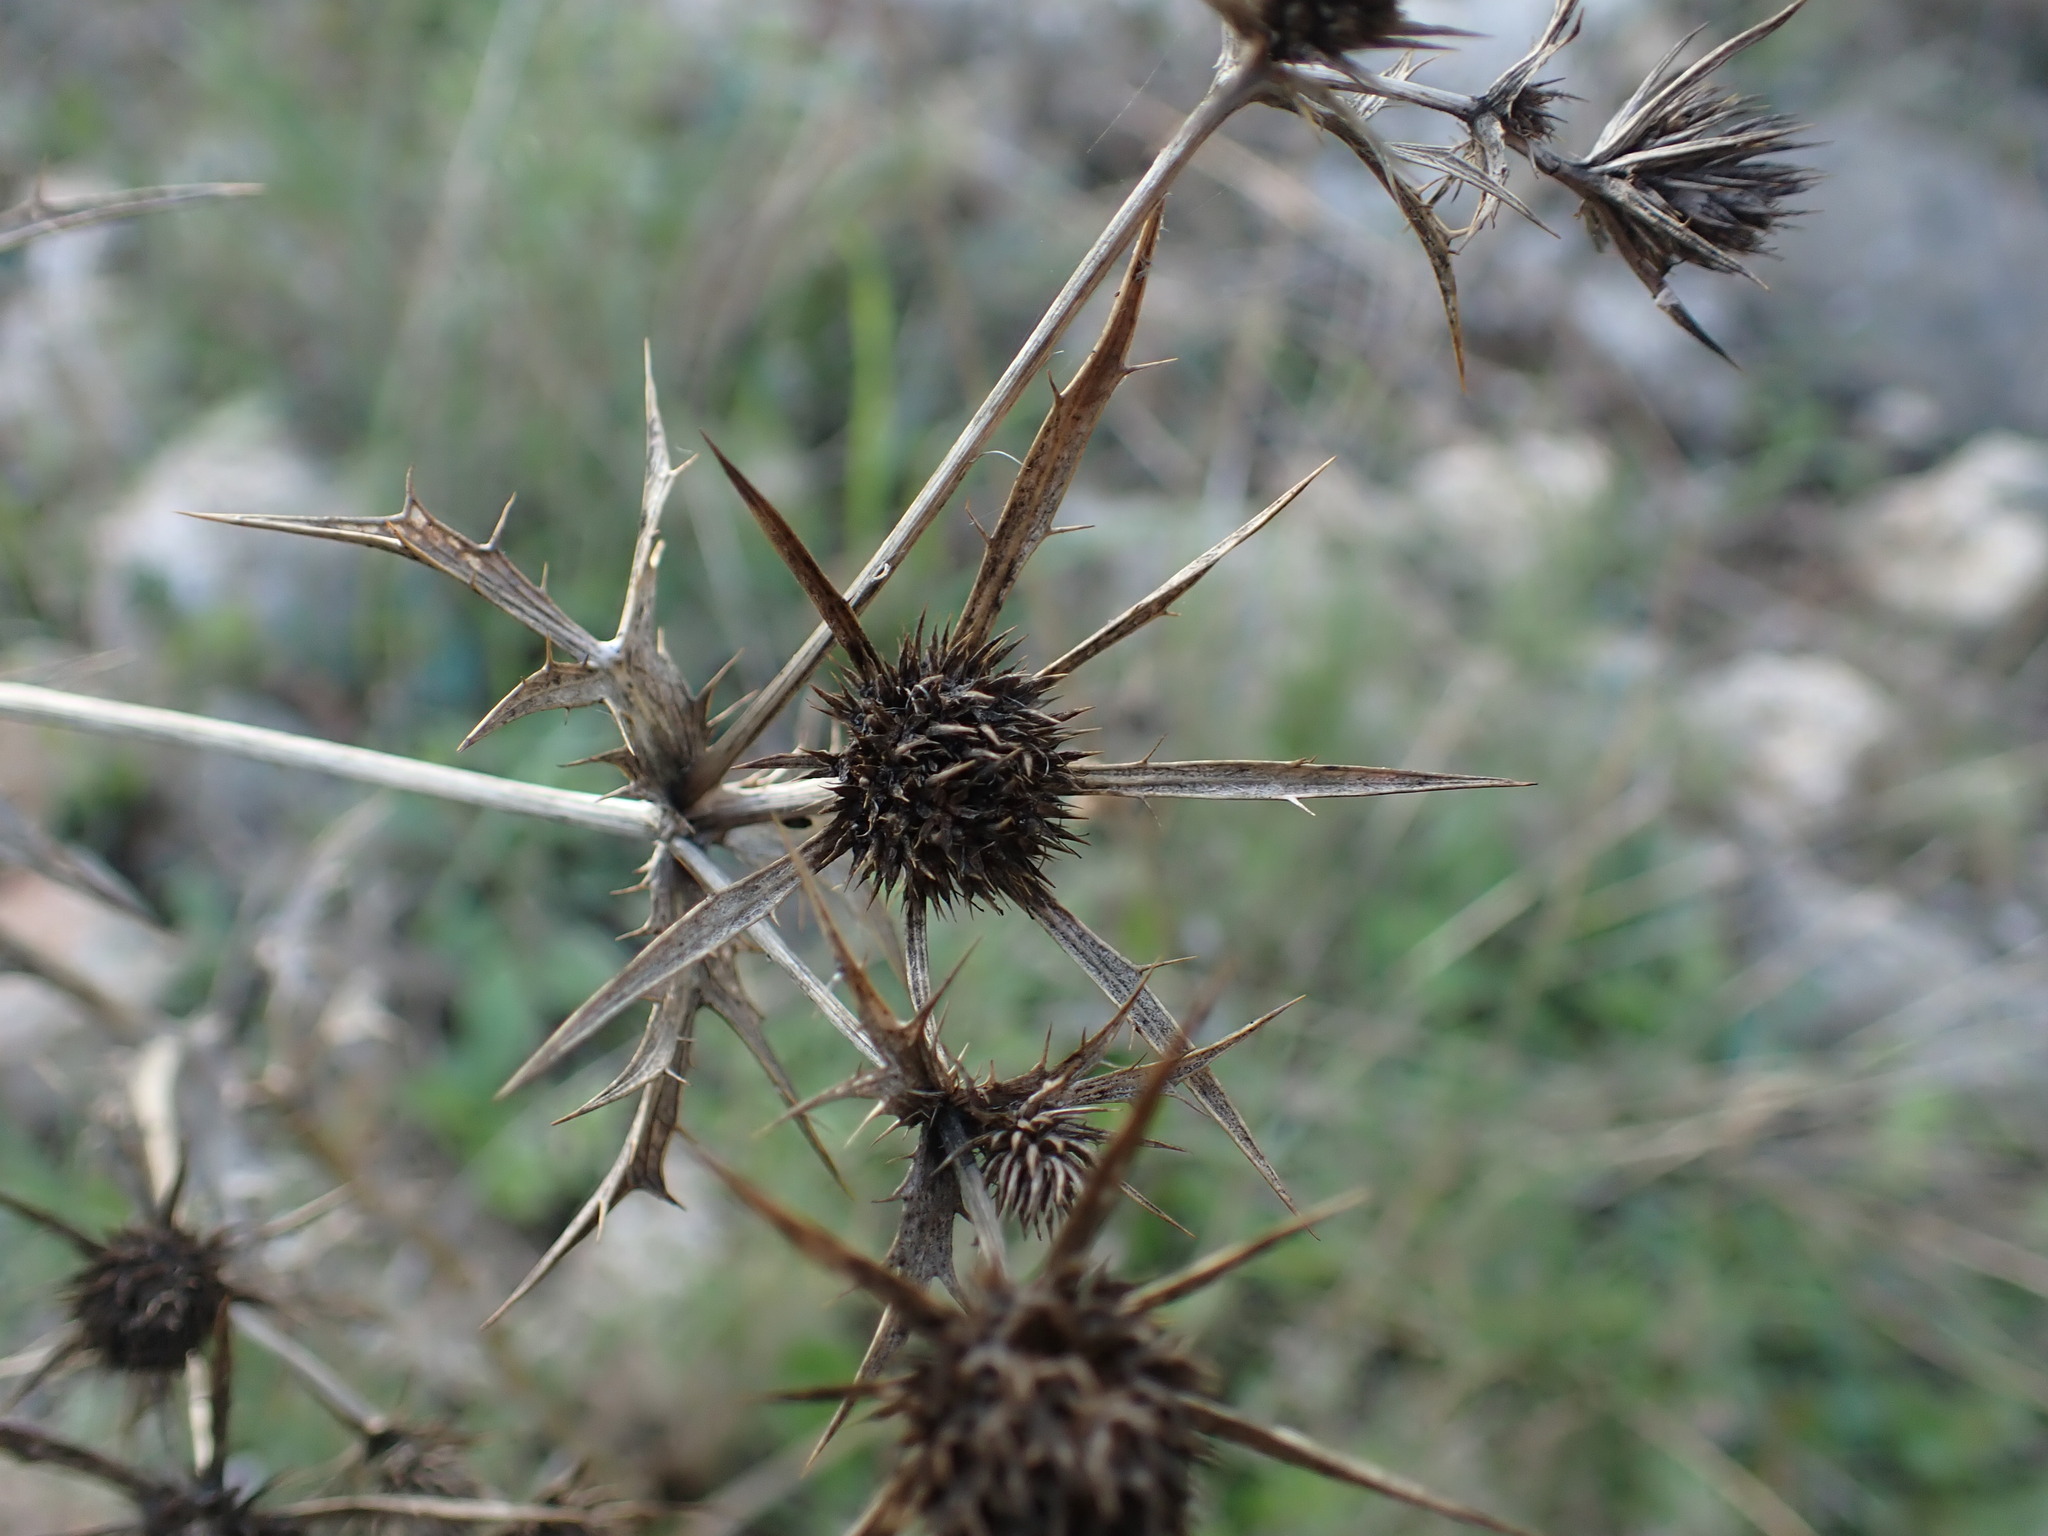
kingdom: Plantae
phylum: Tracheophyta
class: Magnoliopsida
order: Apiales
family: Apiaceae
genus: Eryngium
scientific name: Eryngium campestre
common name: Field eryngo
